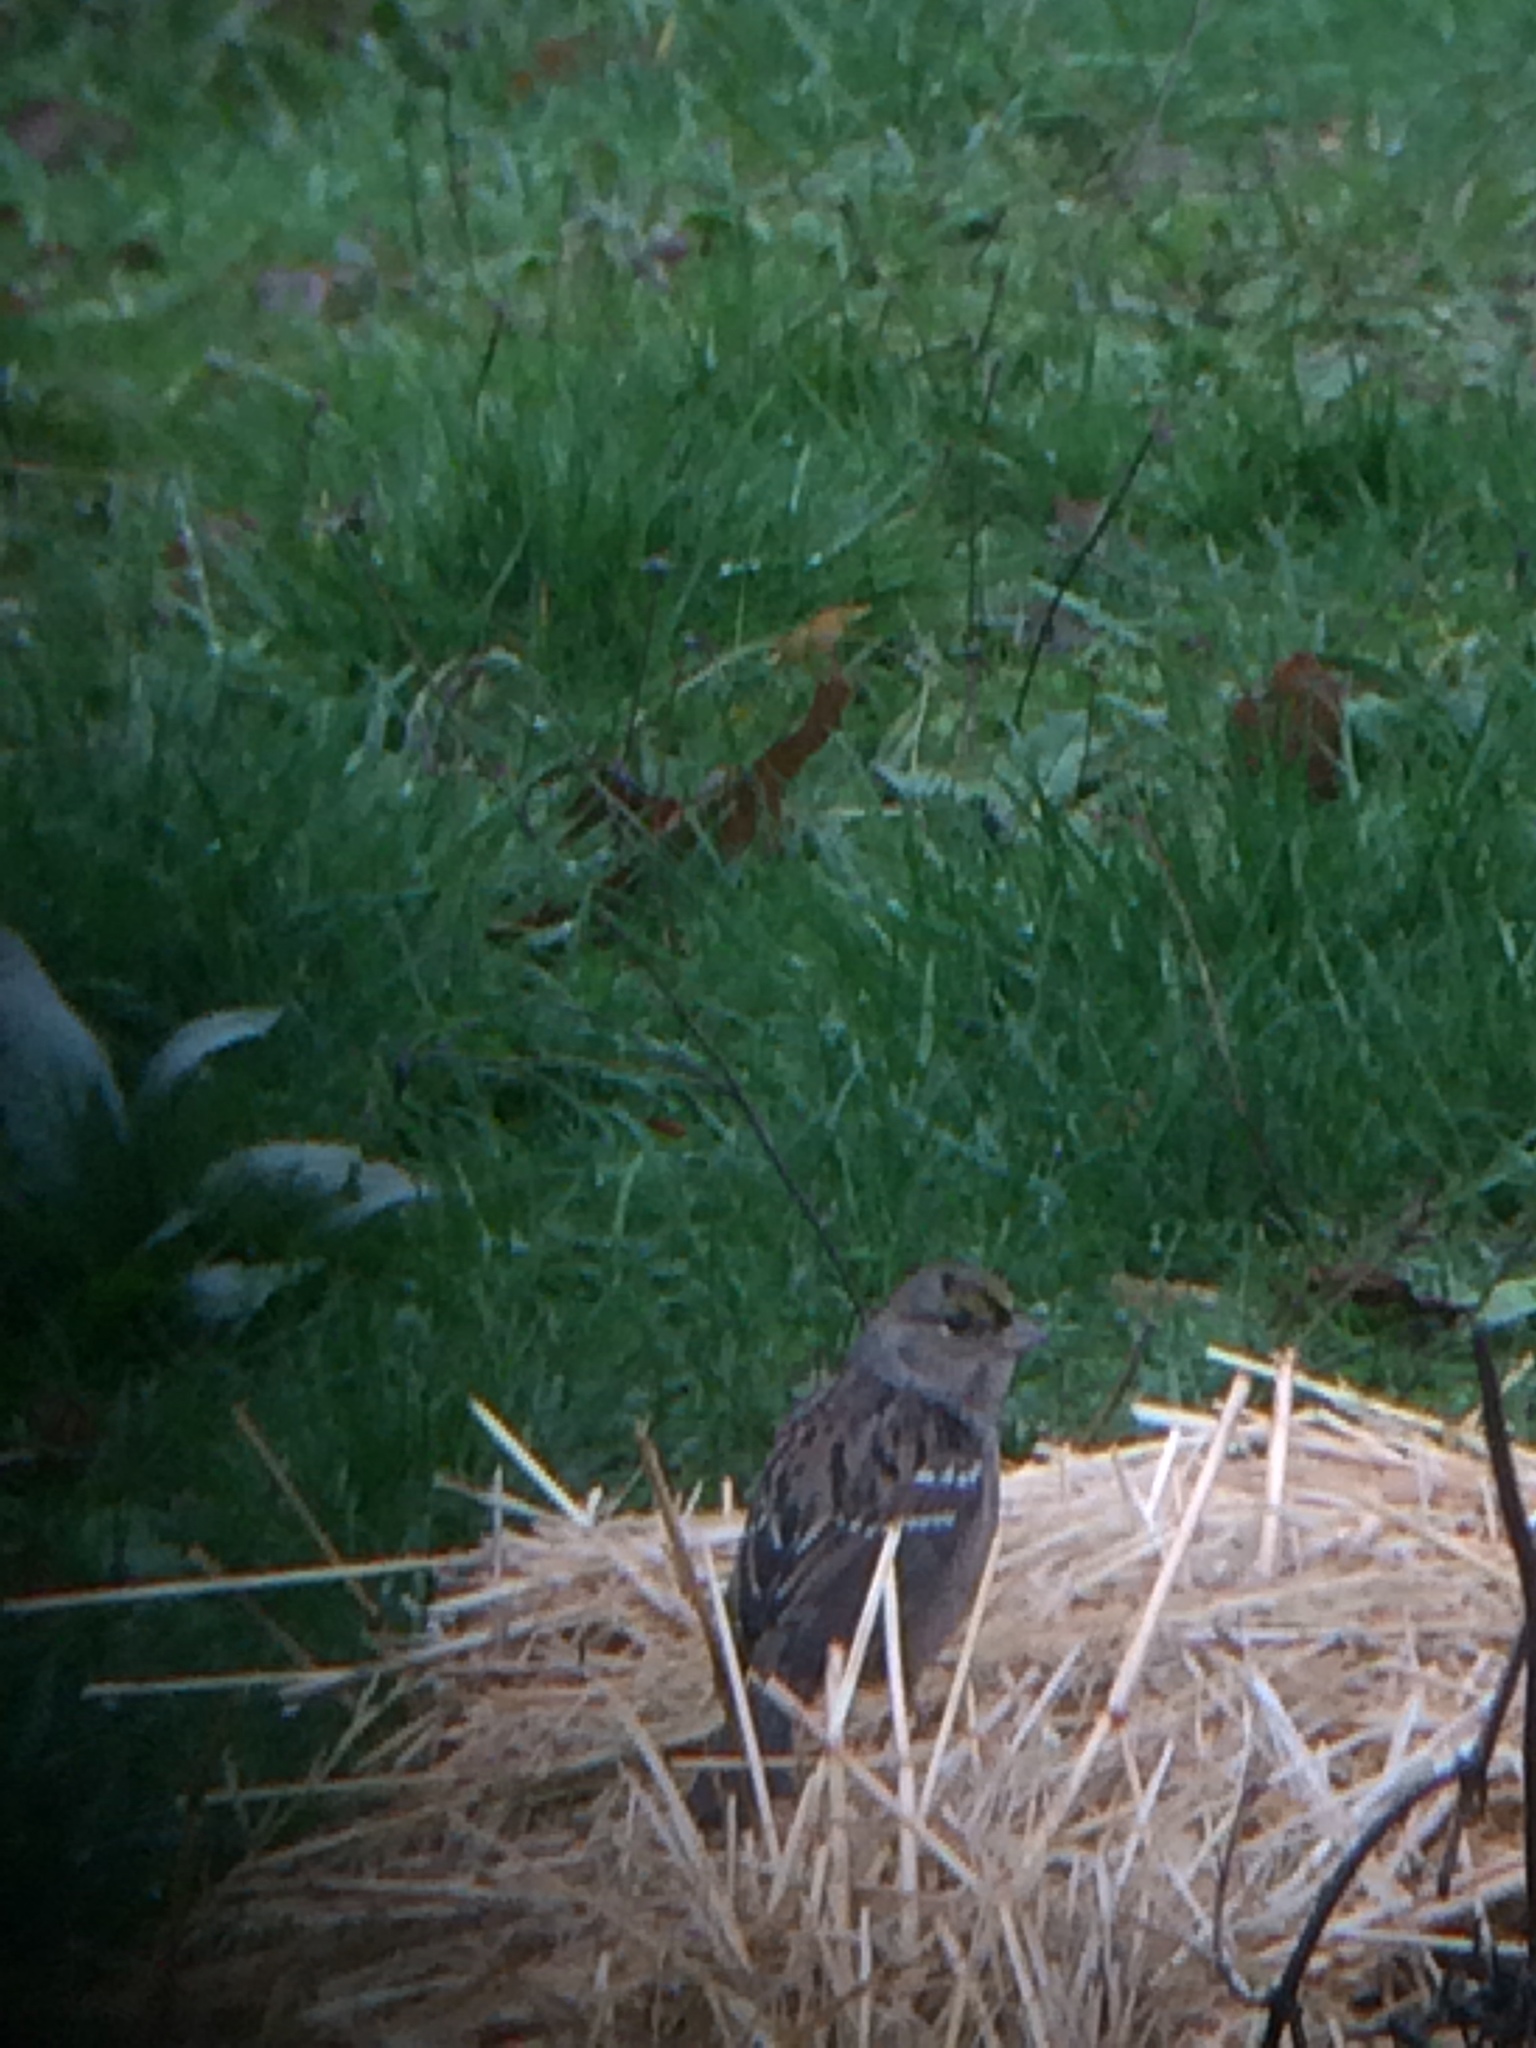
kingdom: Animalia
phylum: Chordata
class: Aves
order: Passeriformes
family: Passerellidae
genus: Zonotrichia
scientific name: Zonotrichia atricapilla
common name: Golden-crowned sparrow
